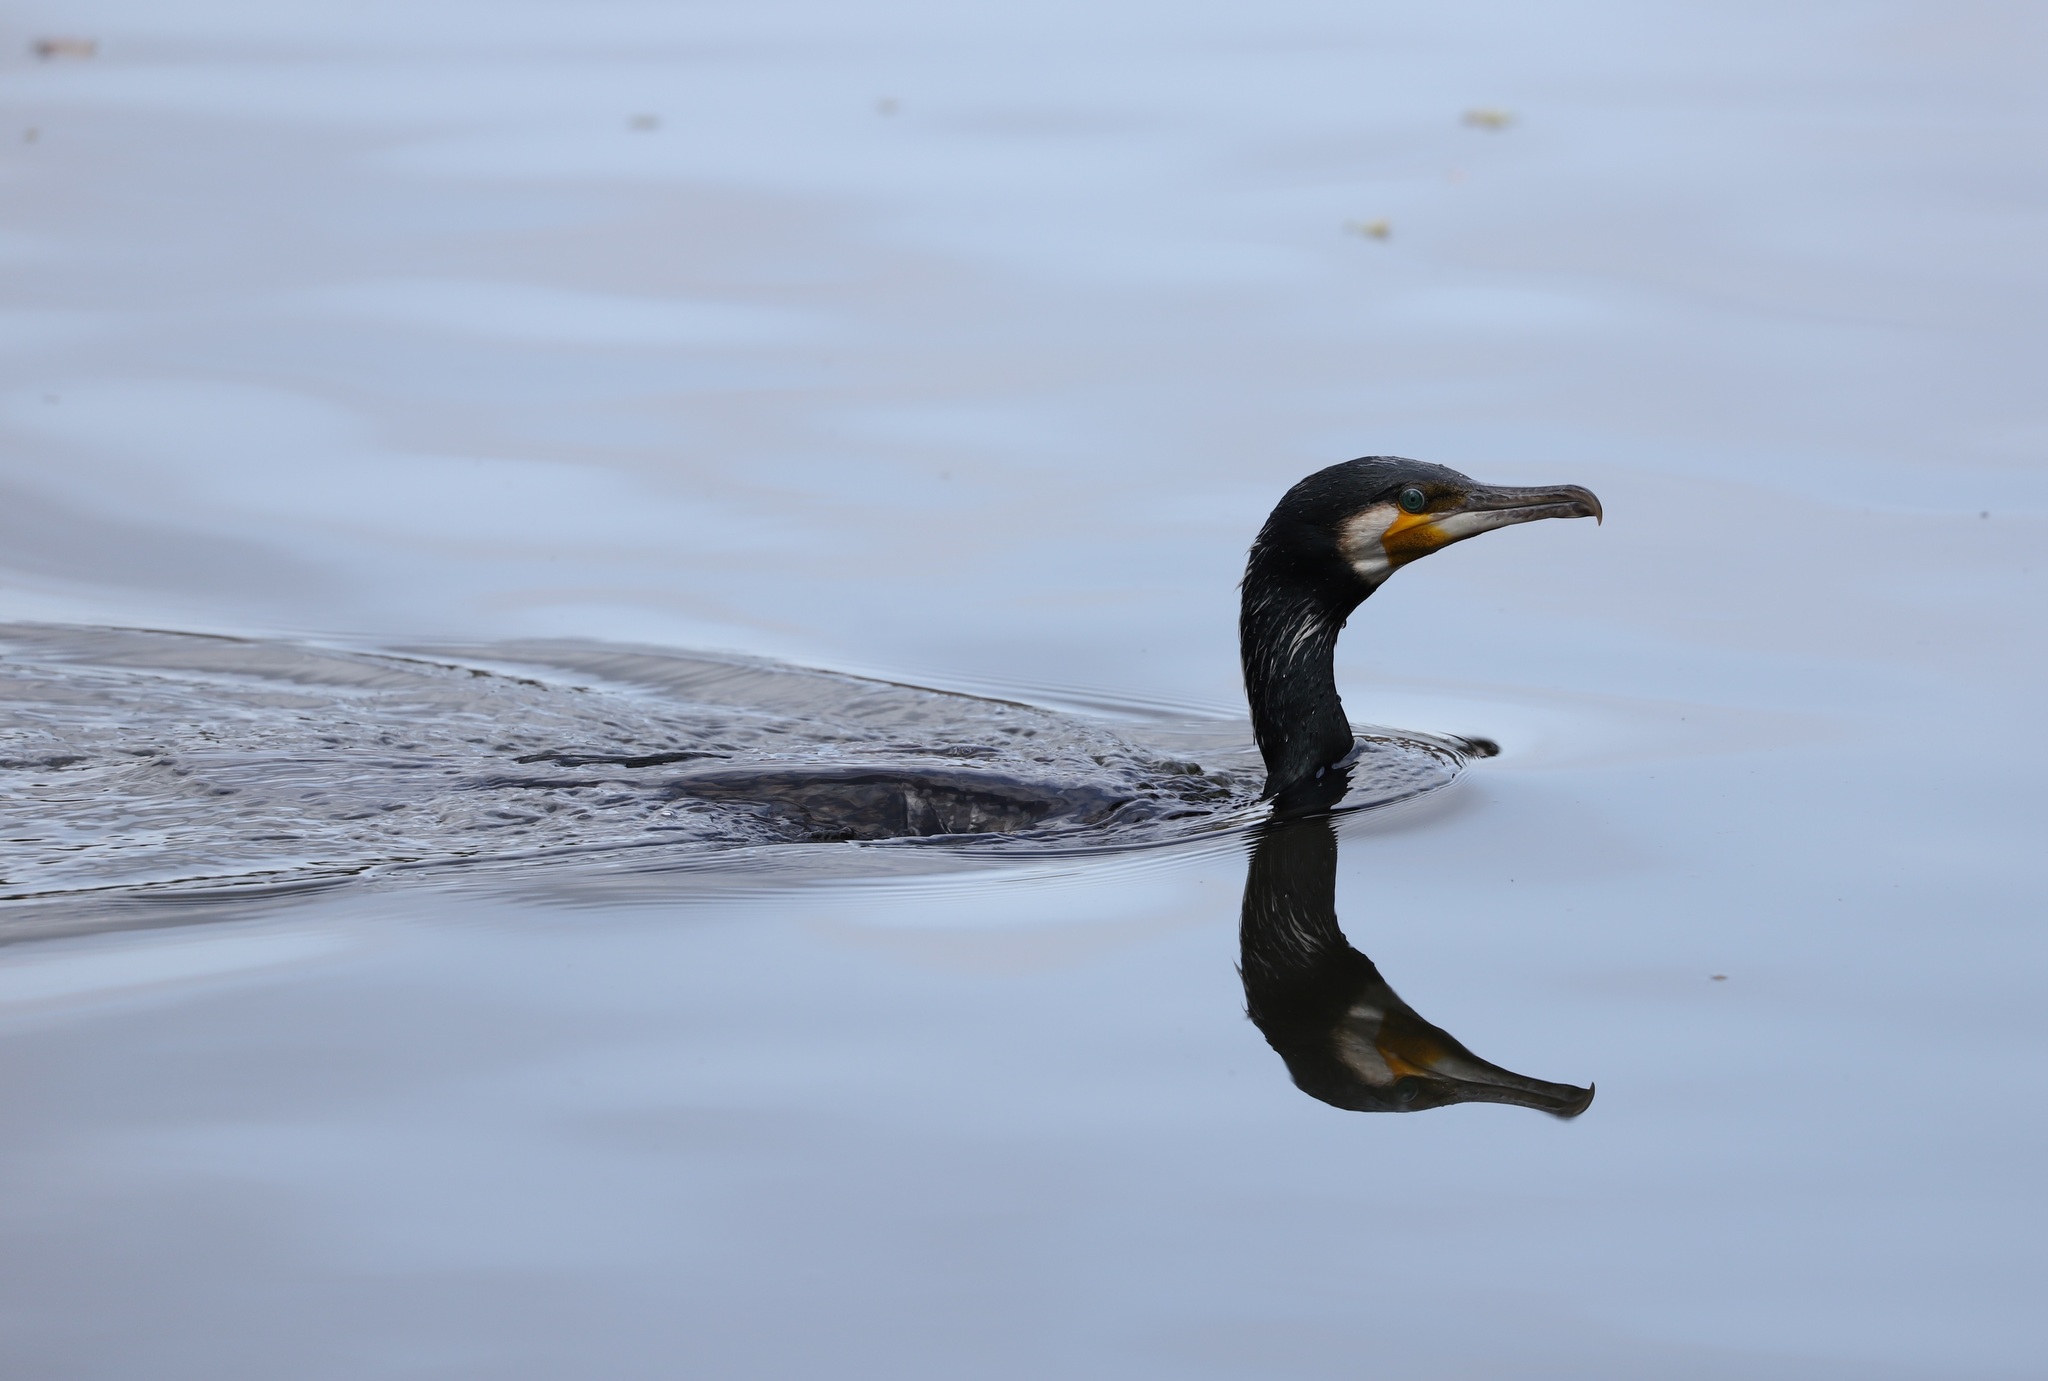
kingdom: Animalia
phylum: Chordata
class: Aves
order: Suliformes
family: Phalacrocoracidae
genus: Phalacrocorax
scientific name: Phalacrocorax carbo
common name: Great cormorant
